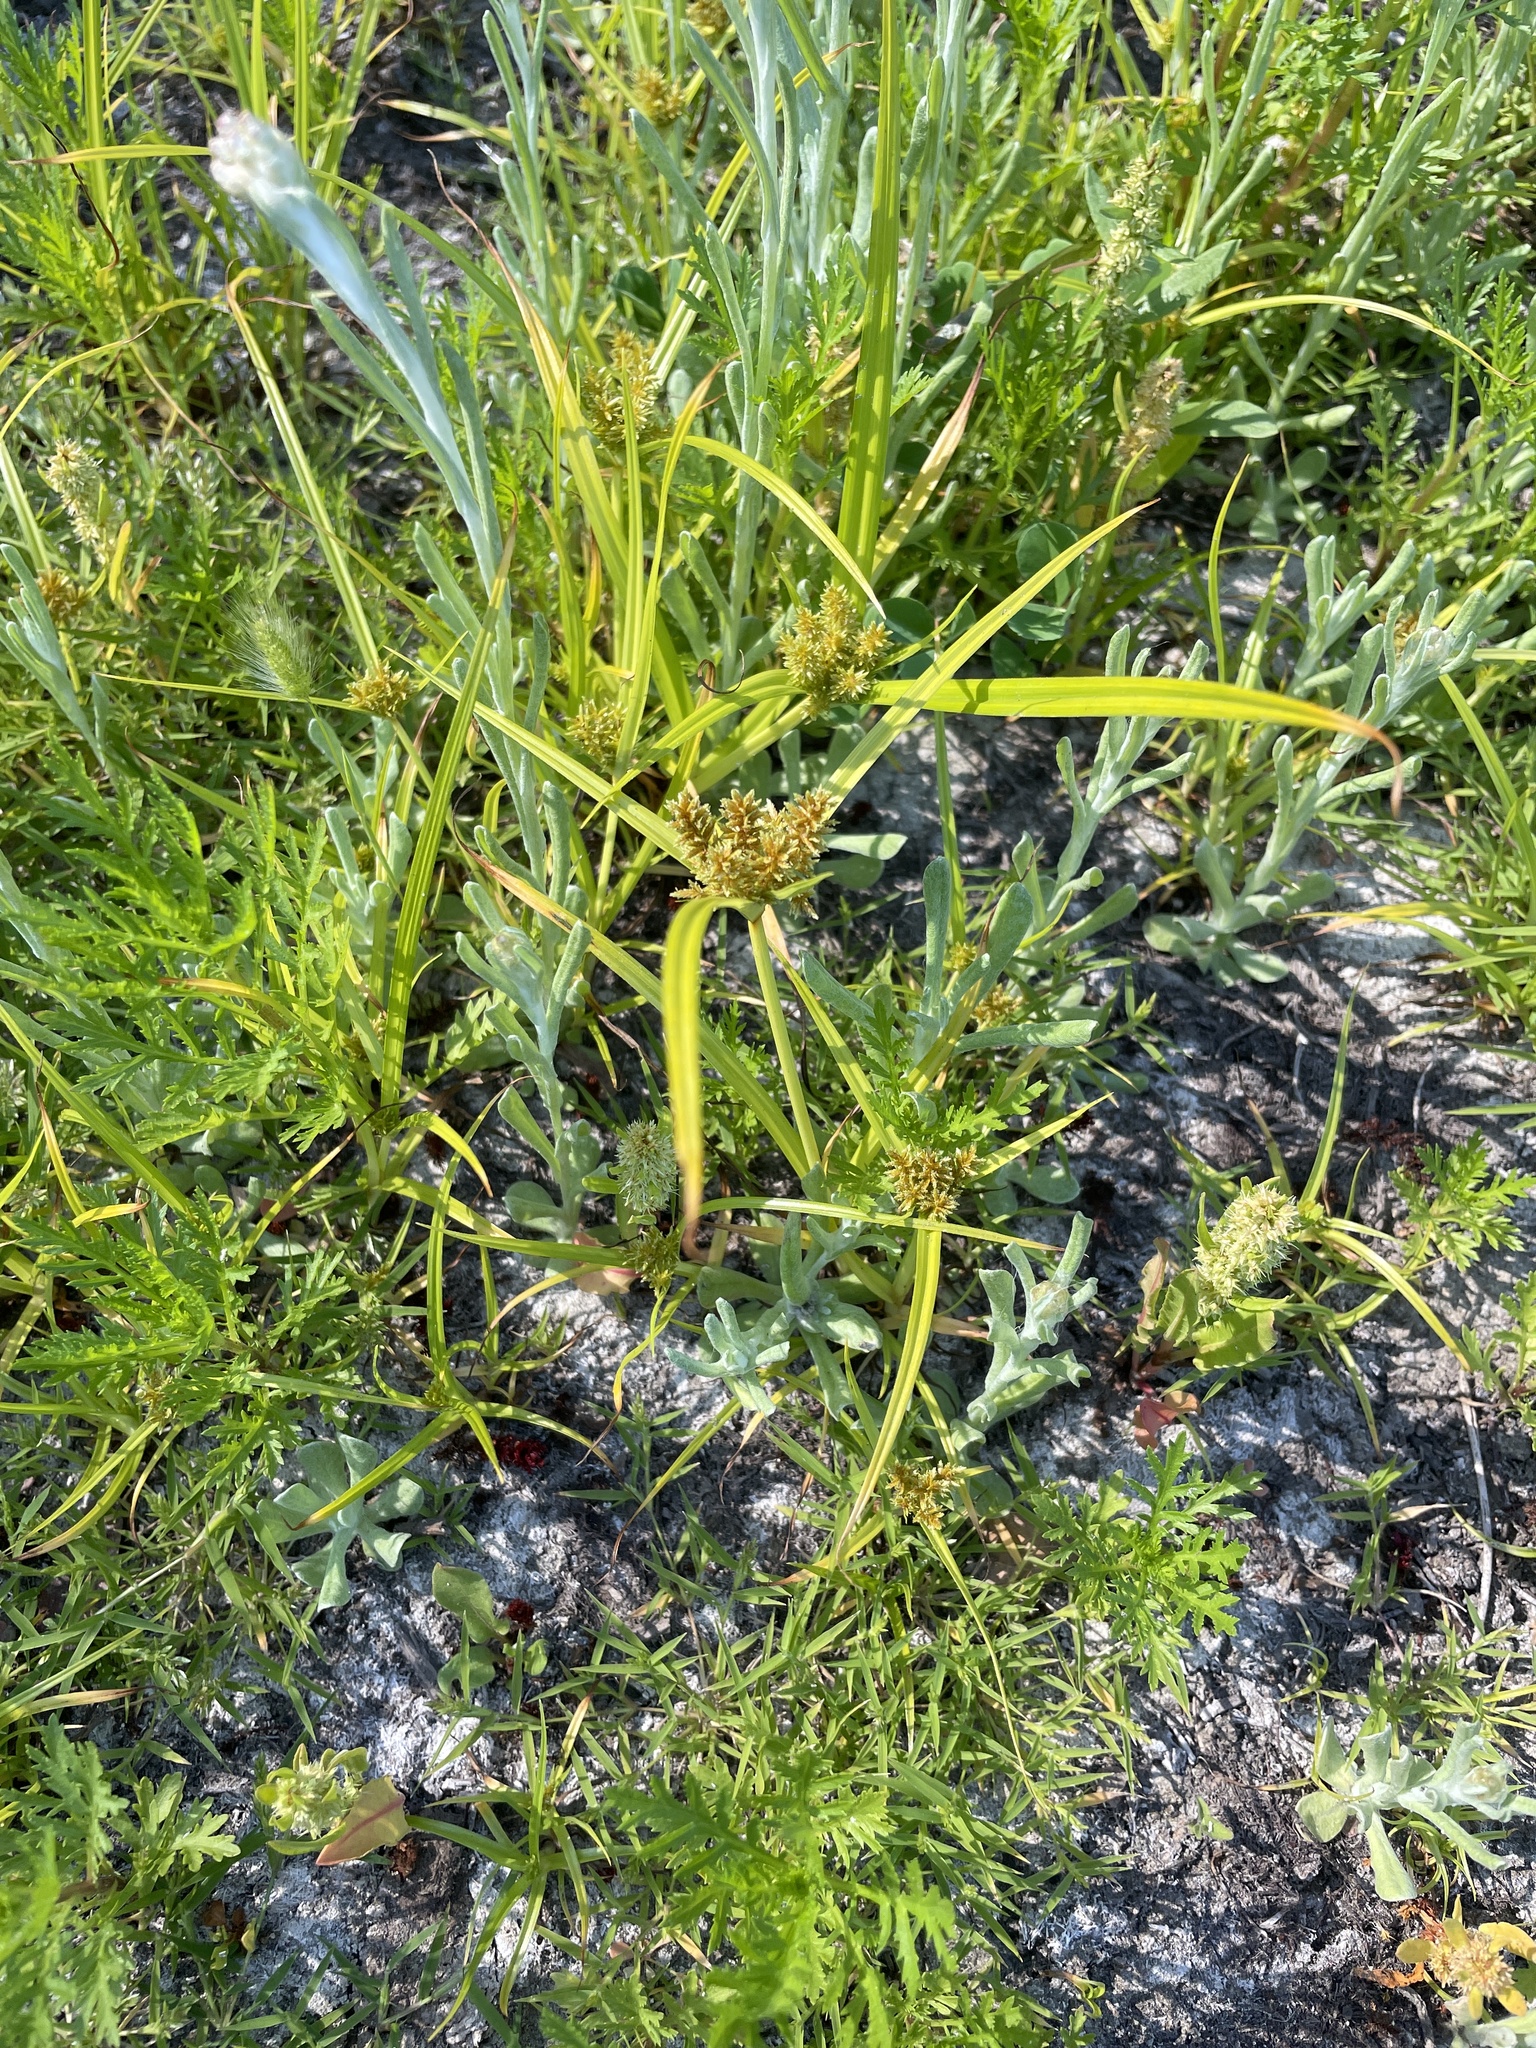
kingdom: Plantae
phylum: Tracheophyta
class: Liliopsida
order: Poales
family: Cyperaceae
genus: Cyperus
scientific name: Cyperus erythrorhizos
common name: Red-root flat sedge
